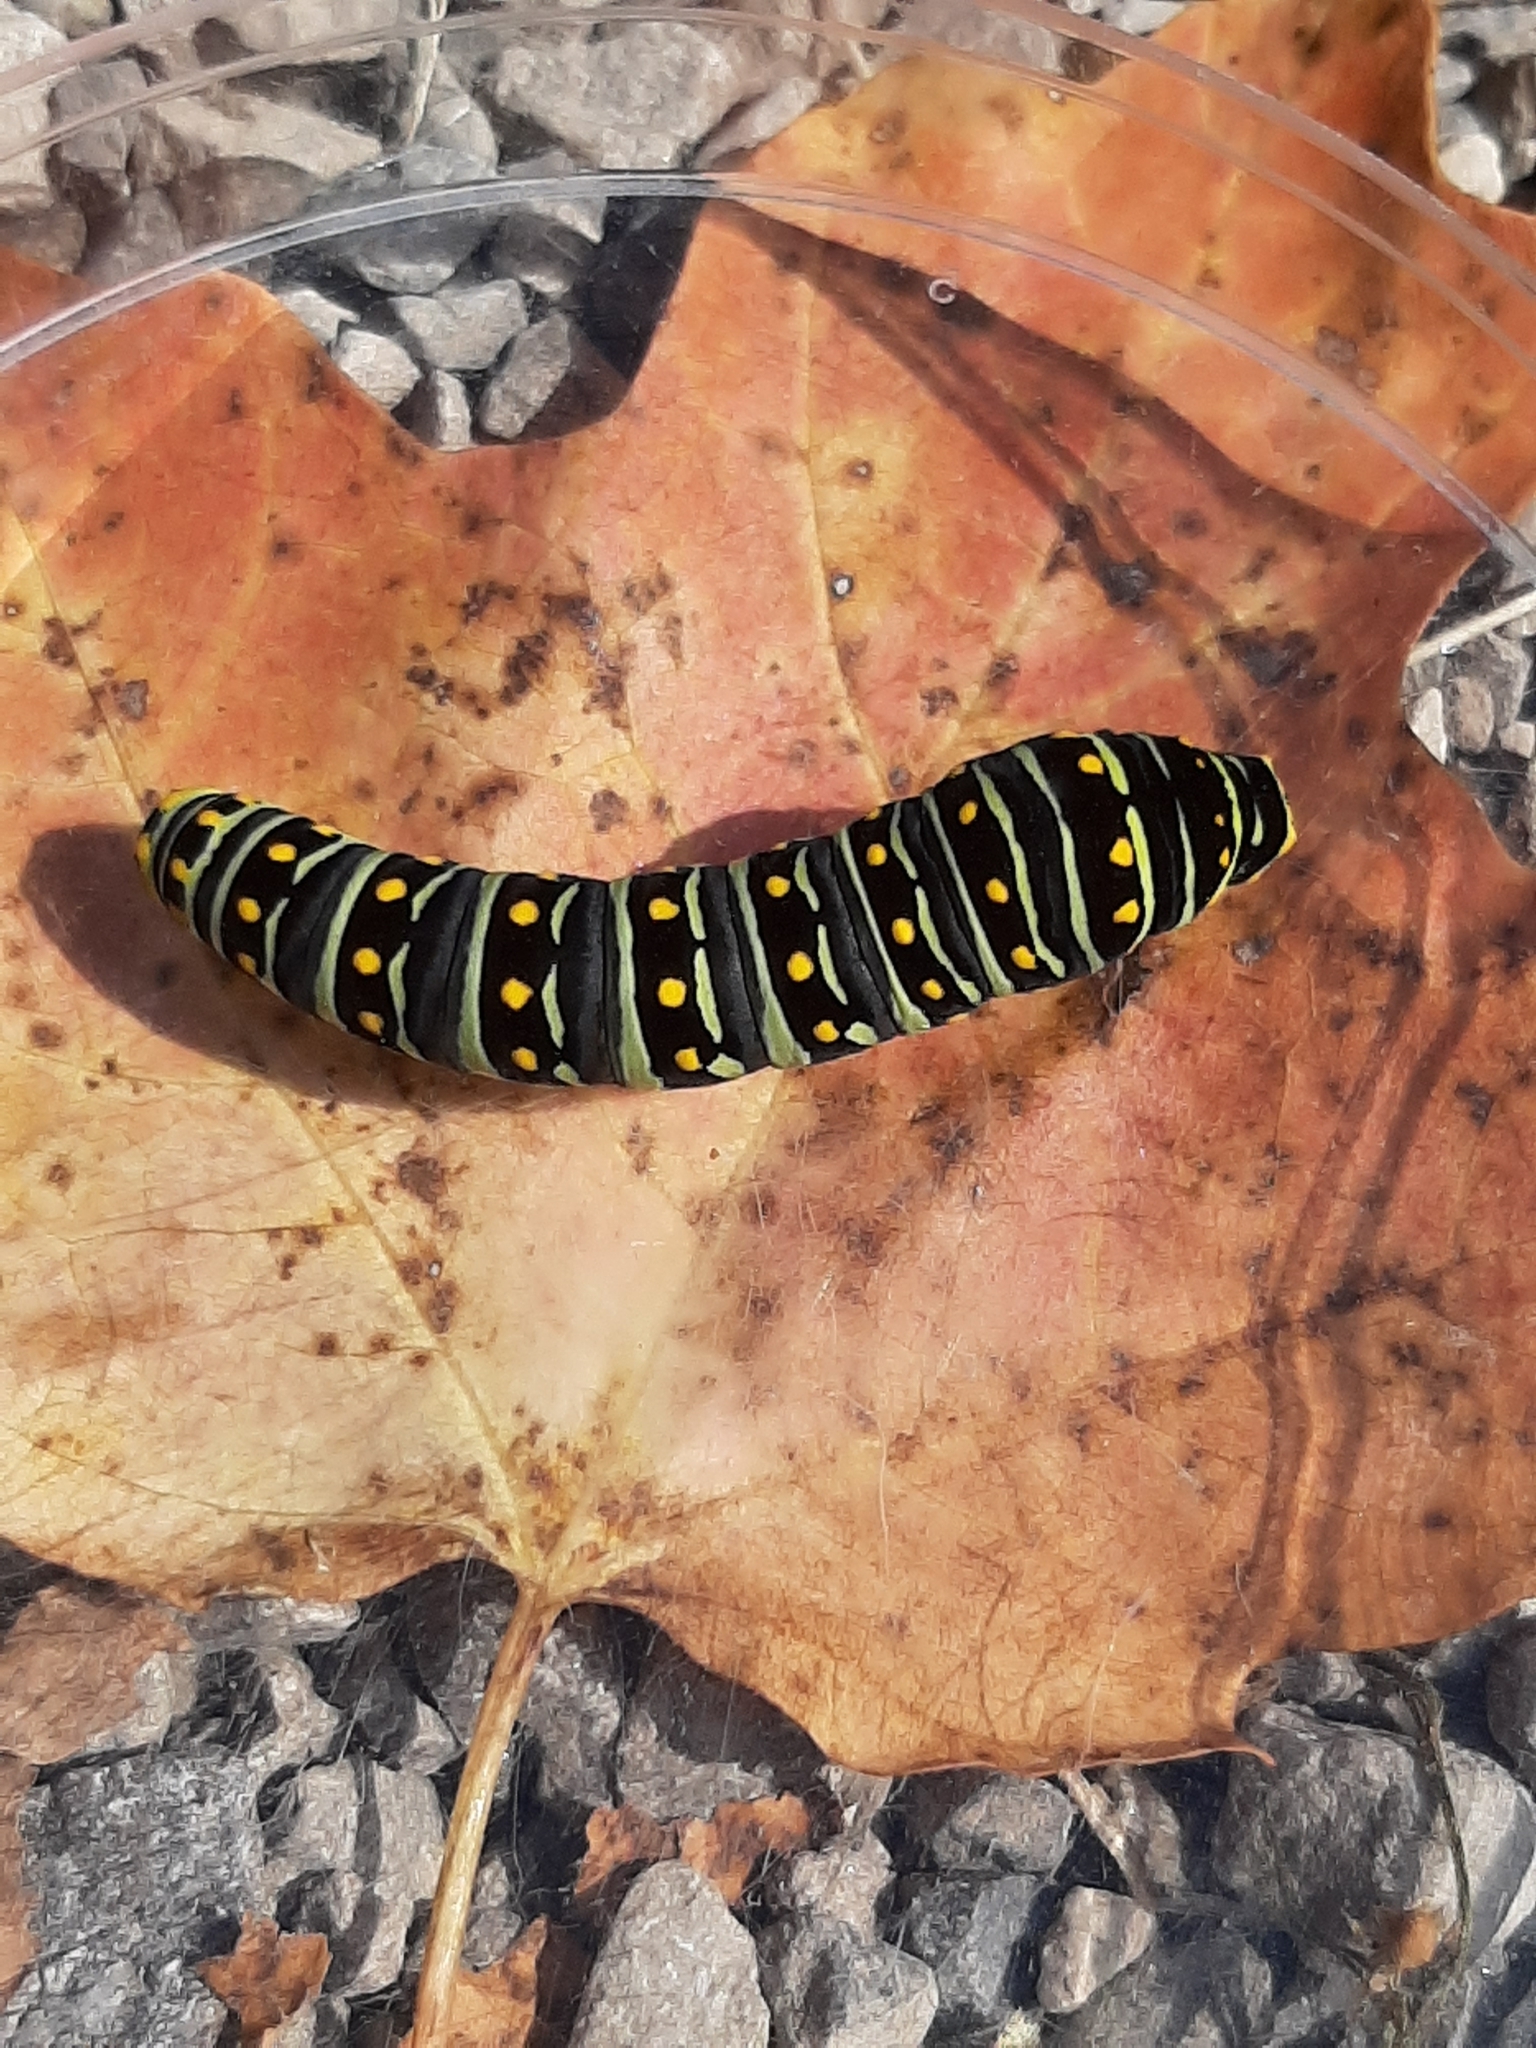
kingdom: Animalia
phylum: Arthropoda
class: Insecta
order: Lepidoptera
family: Papilionidae
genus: Papilio
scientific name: Papilio polyxenes
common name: Black swallowtail
